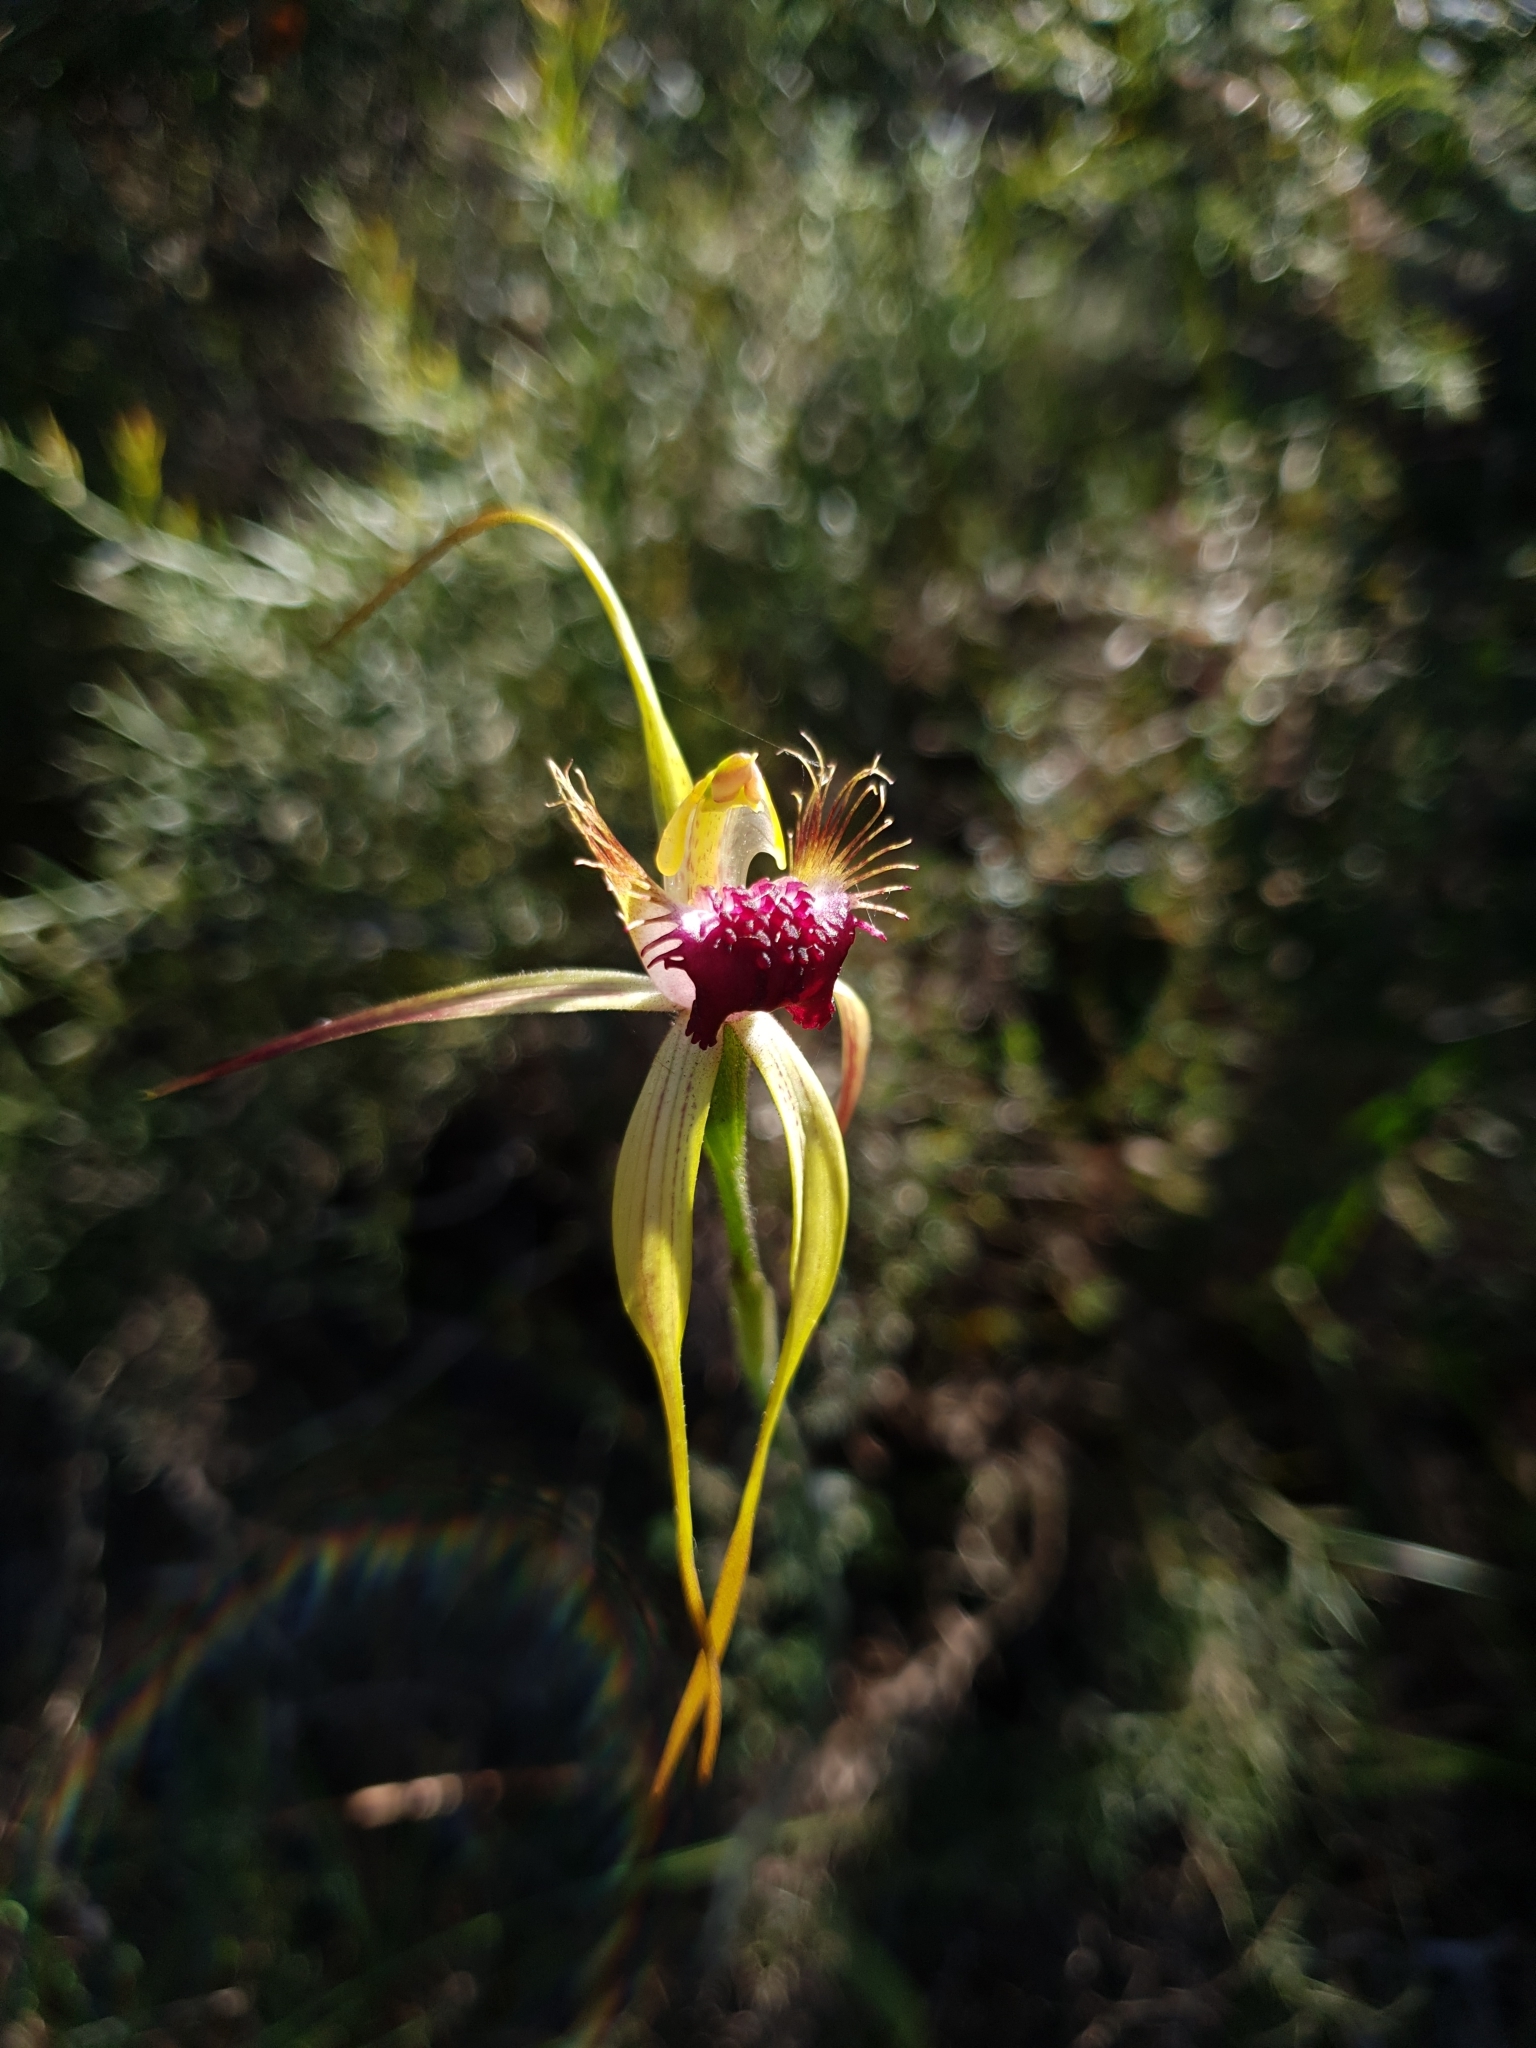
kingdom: Plantae
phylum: Tracheophyta
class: Liliopsida
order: Asparagales
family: Orchidaceae
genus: Caladenia
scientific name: Caladenia thinicola
